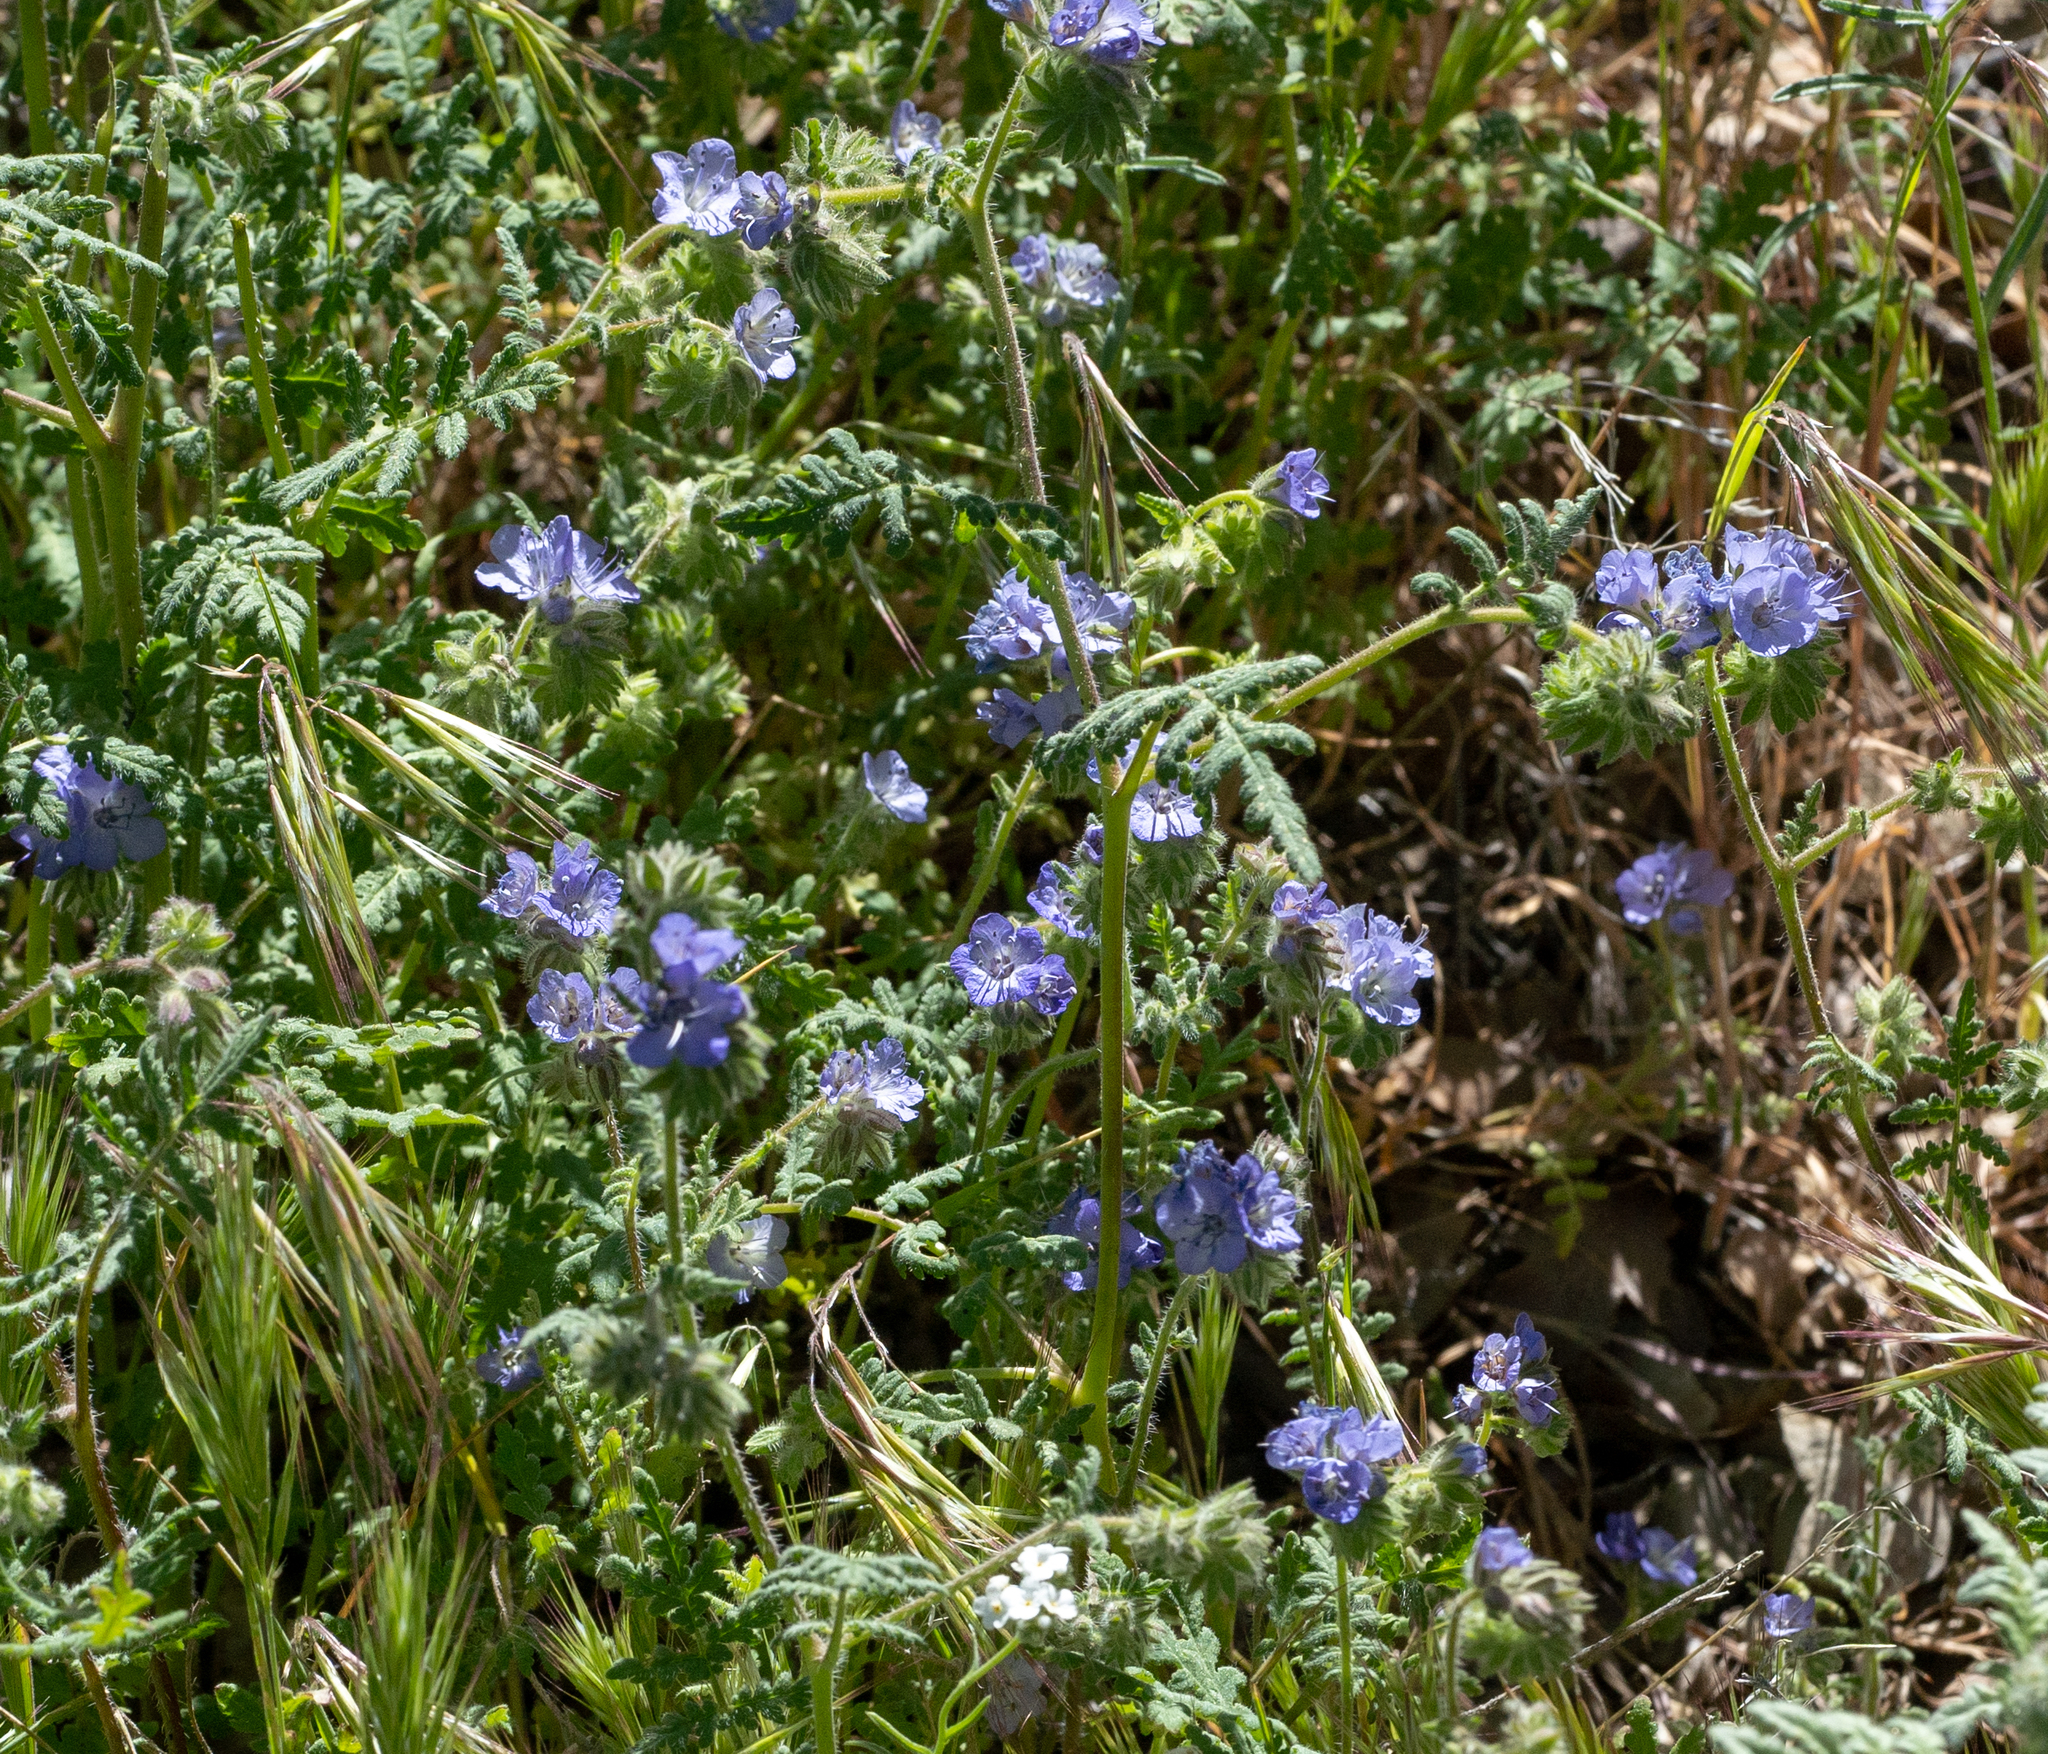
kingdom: Plantae
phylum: Tracheophyta
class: Magnoliopsida
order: Boraginales
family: Hydrophyllaceae
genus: Phacelia
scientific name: Phacelia distans
